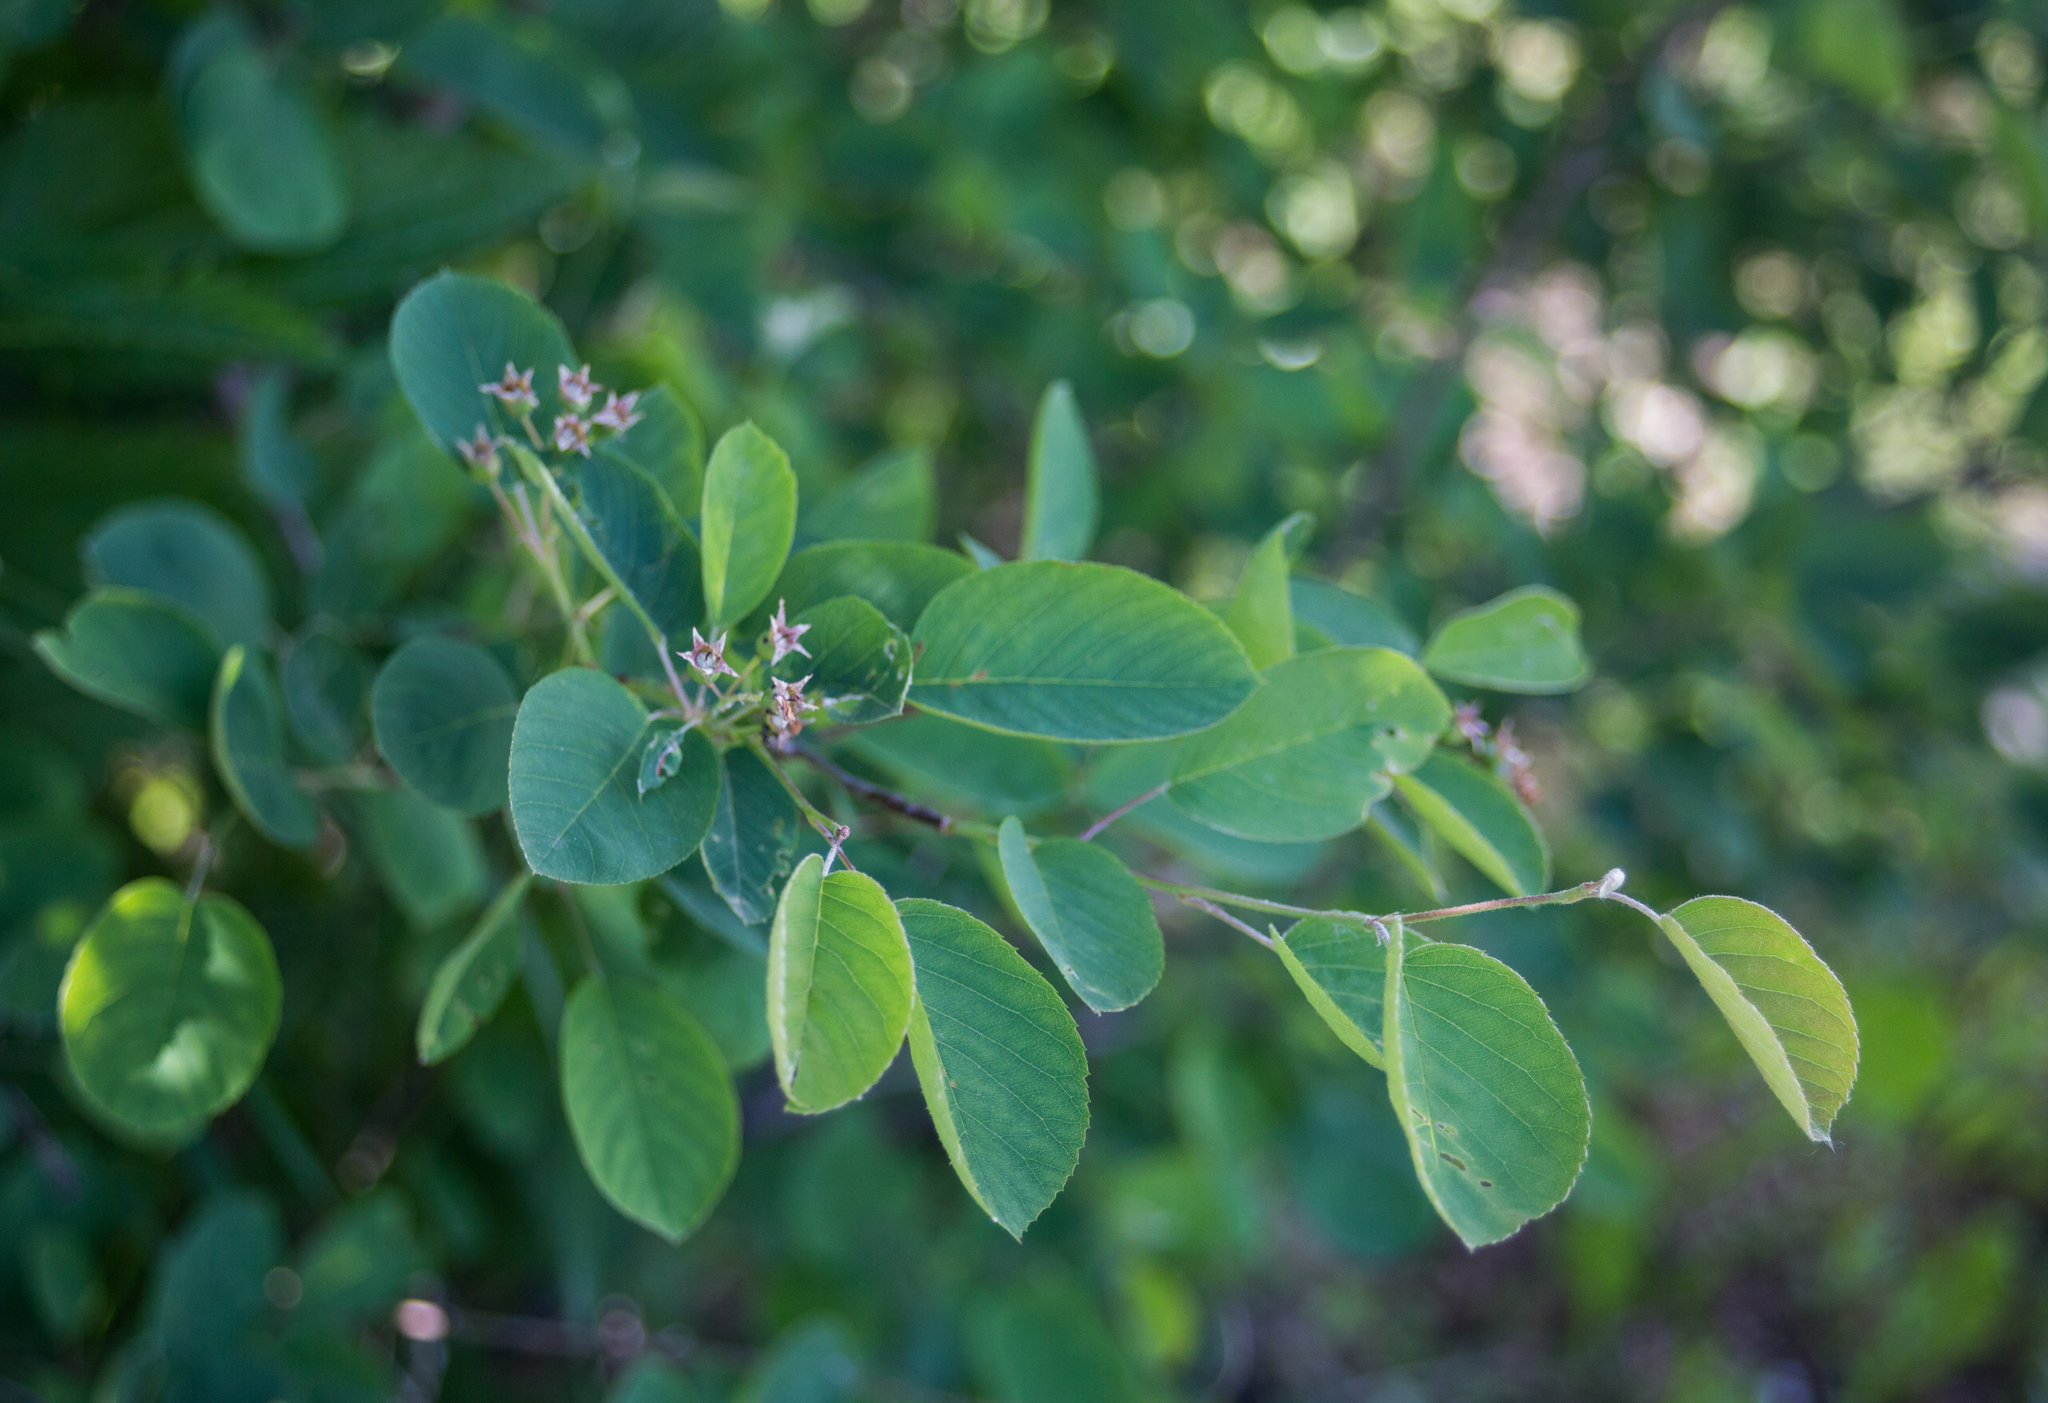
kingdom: Plantae
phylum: Tracheophyta
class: Magnoliopsida
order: Rosales
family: Rosaceae
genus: Amelanchier
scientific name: Amelanchier
